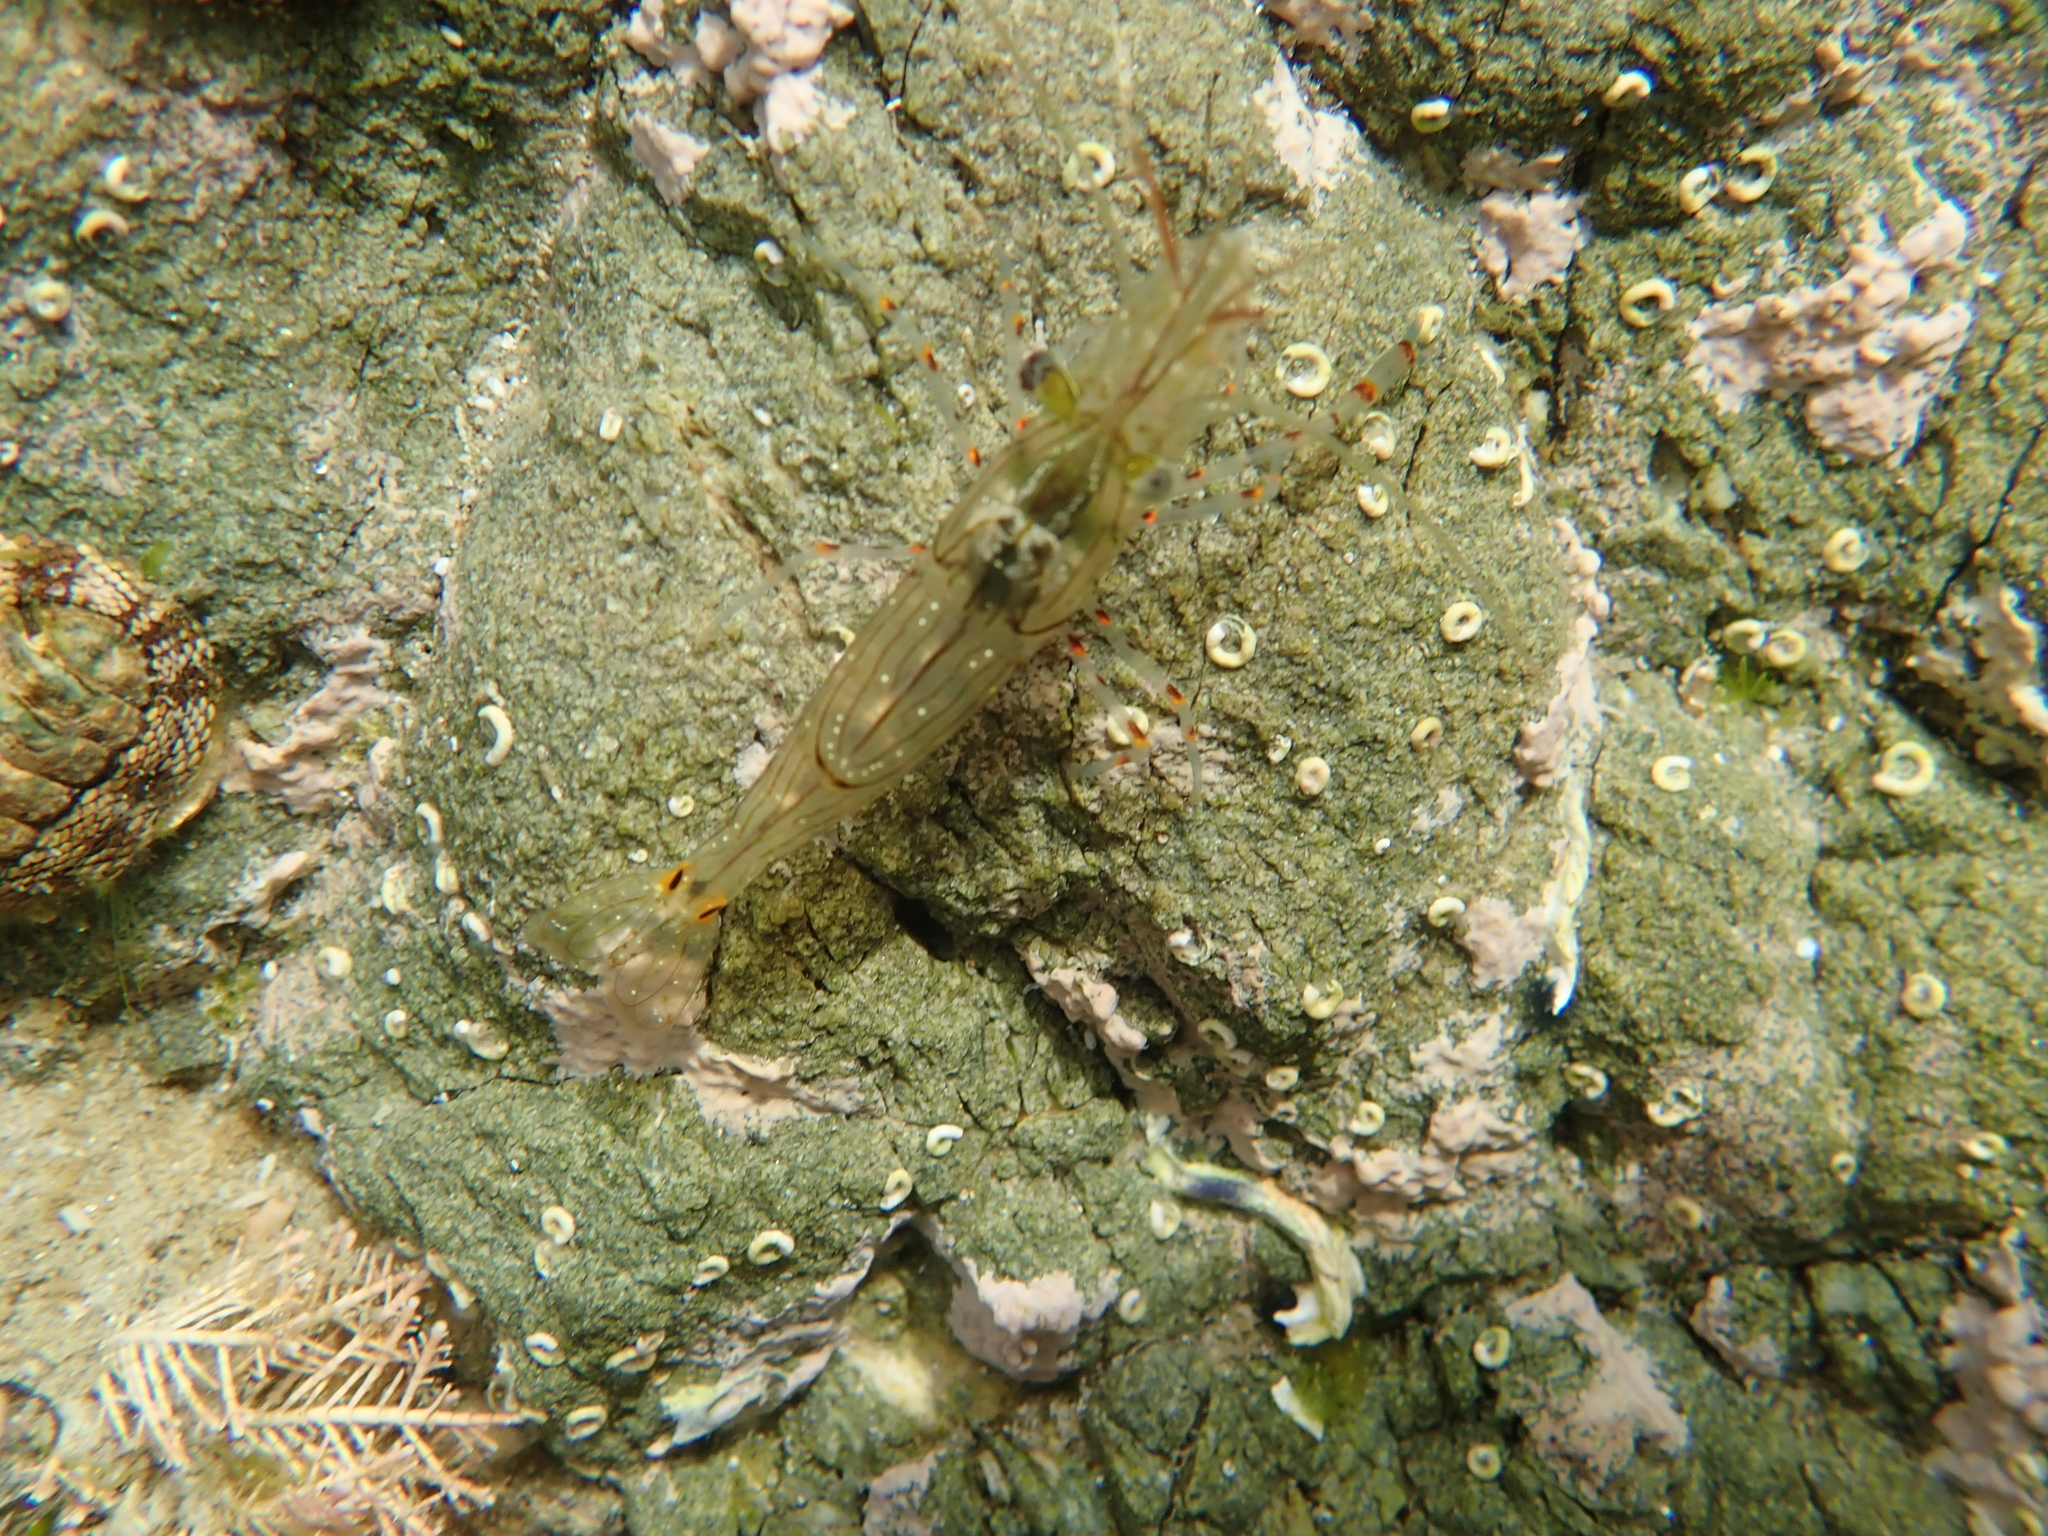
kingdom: Animalia
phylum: Arthropoda
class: Malacostraca
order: Decapoda
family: Palaemonidae
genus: Palaemon
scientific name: Palaemon affinis
